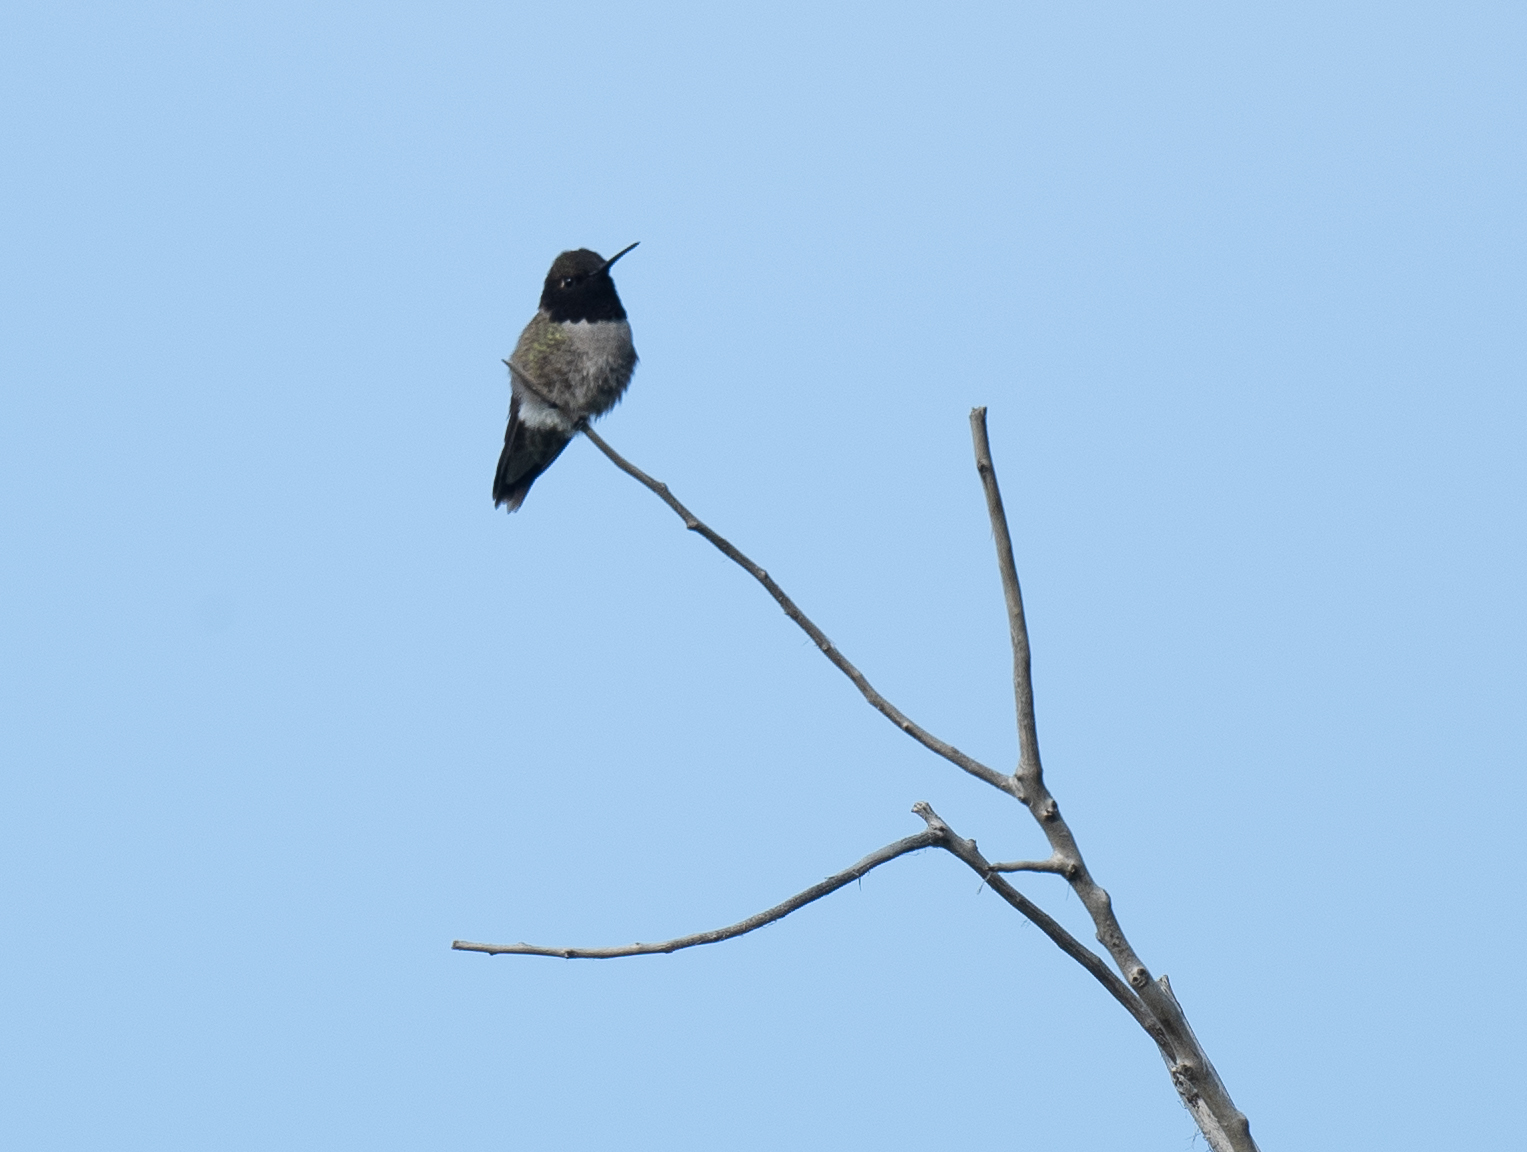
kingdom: Animalia
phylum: Chordata
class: Aves
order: Apodiformes
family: Trochilidae
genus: Archilochus
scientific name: Archilochus alexandri
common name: Black-chinned hummingbird
